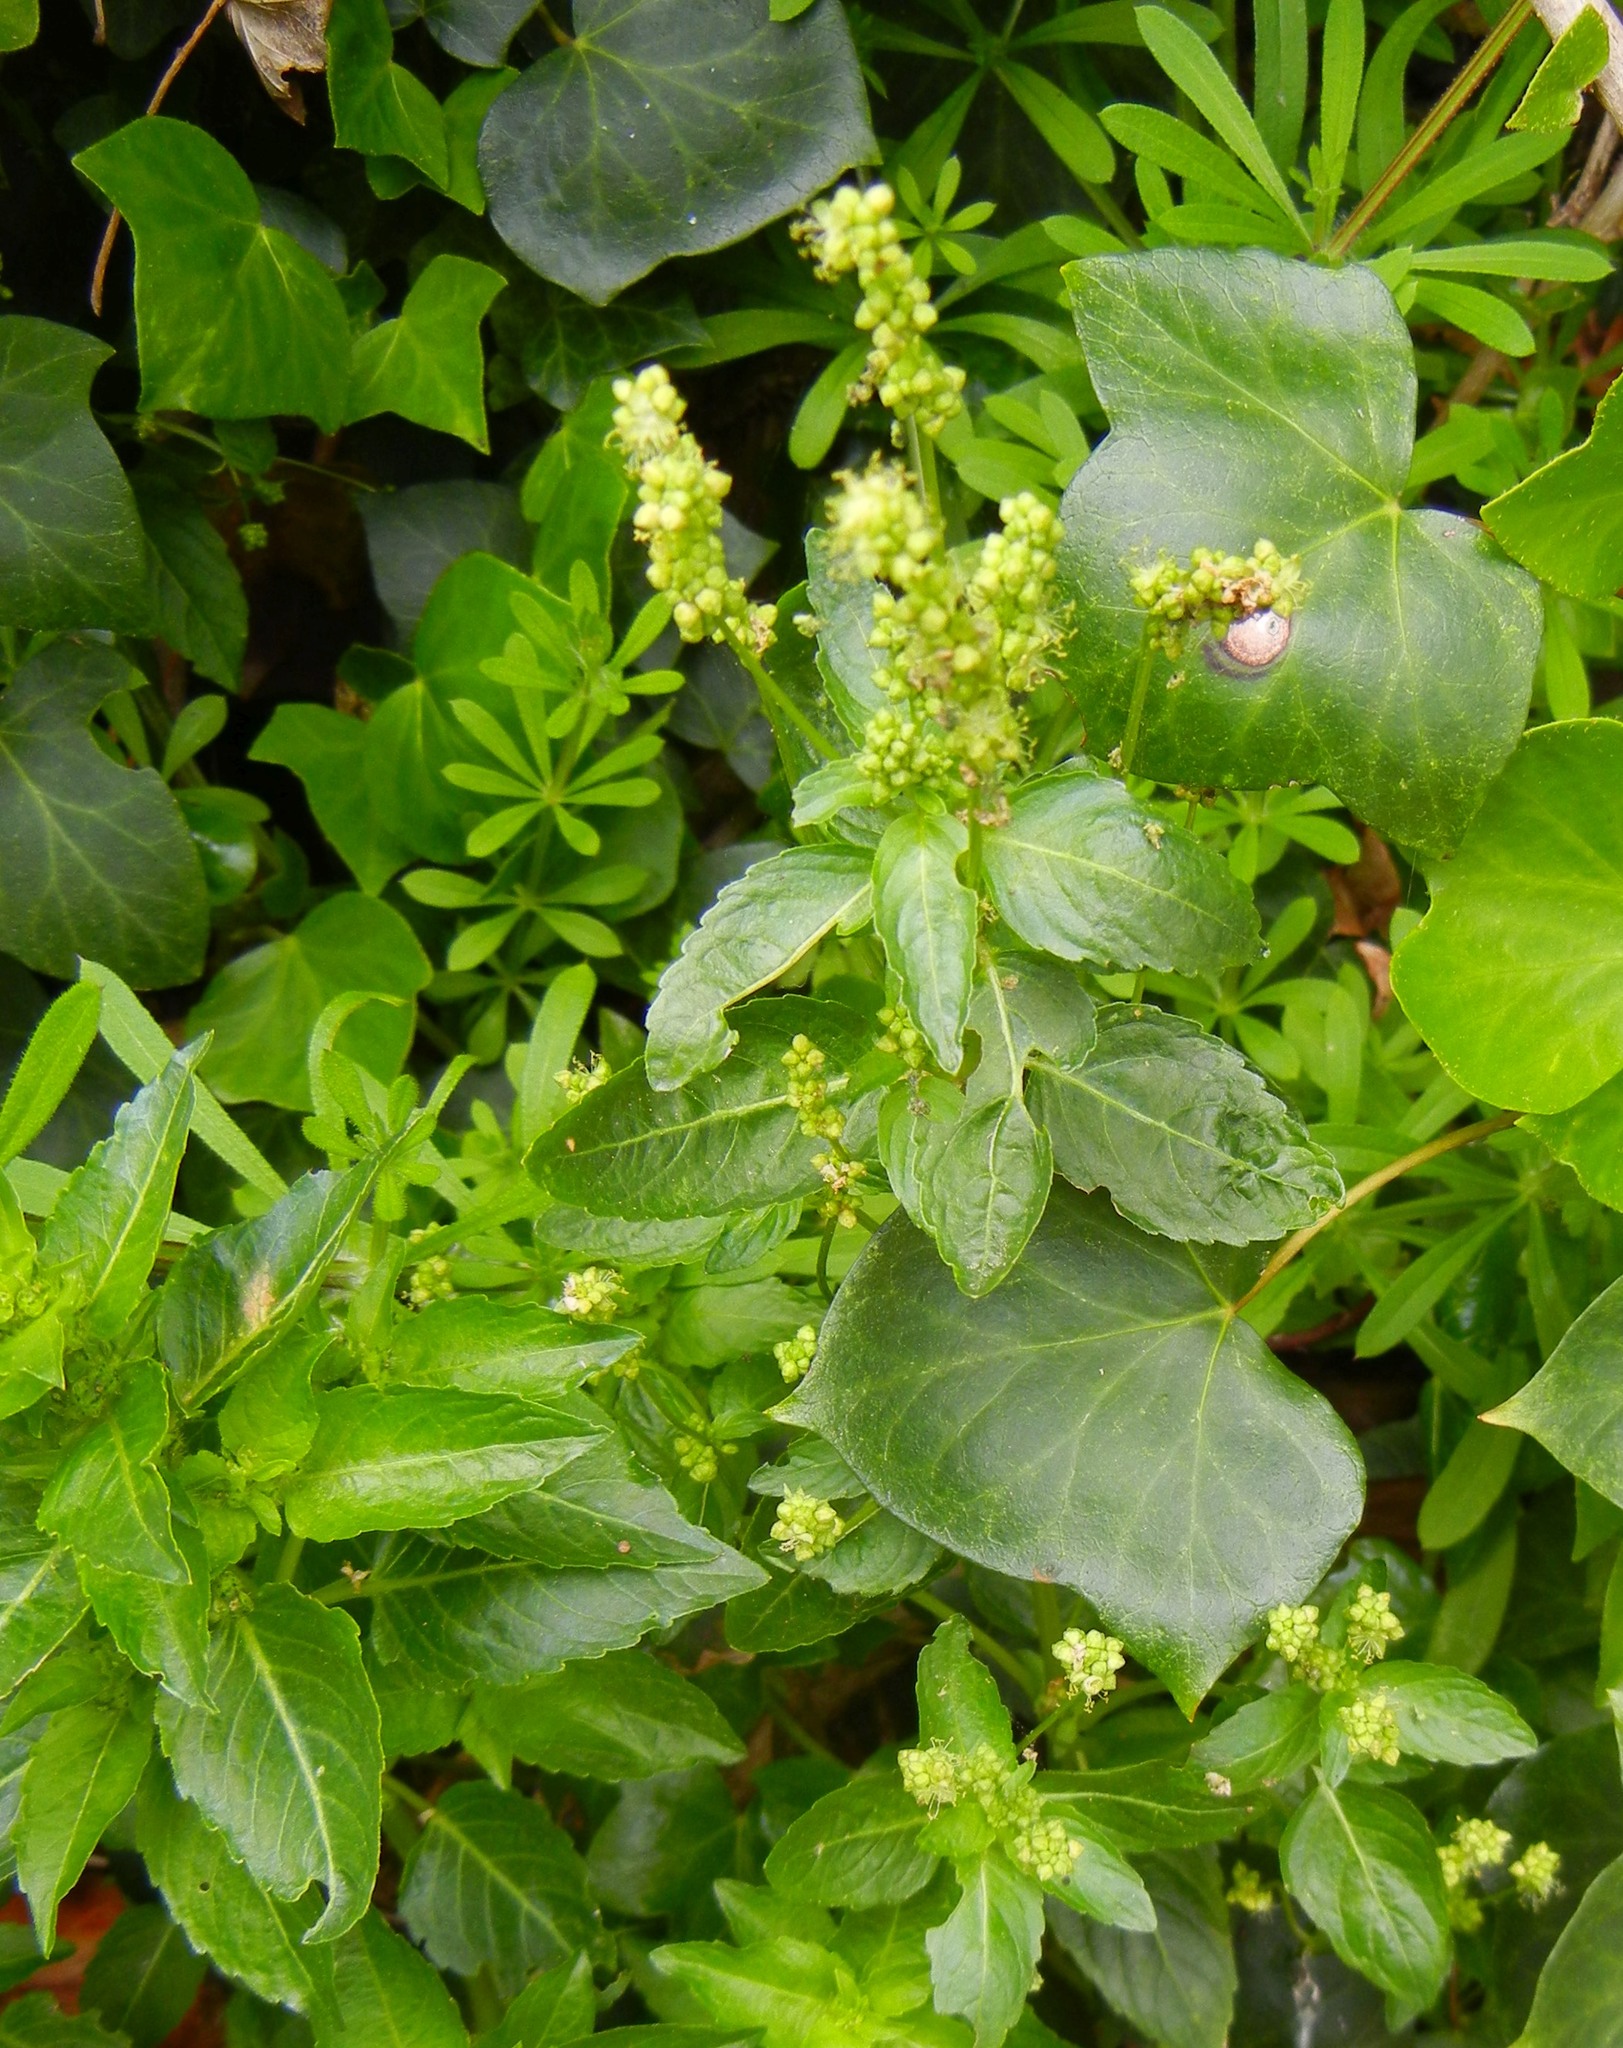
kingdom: Plantae
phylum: Tracheophyta
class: Magnoliopsida
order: Malpighiales
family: Euphorbiaceae
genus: Mercurialis
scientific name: Mercurialis annua
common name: Annual mercury
